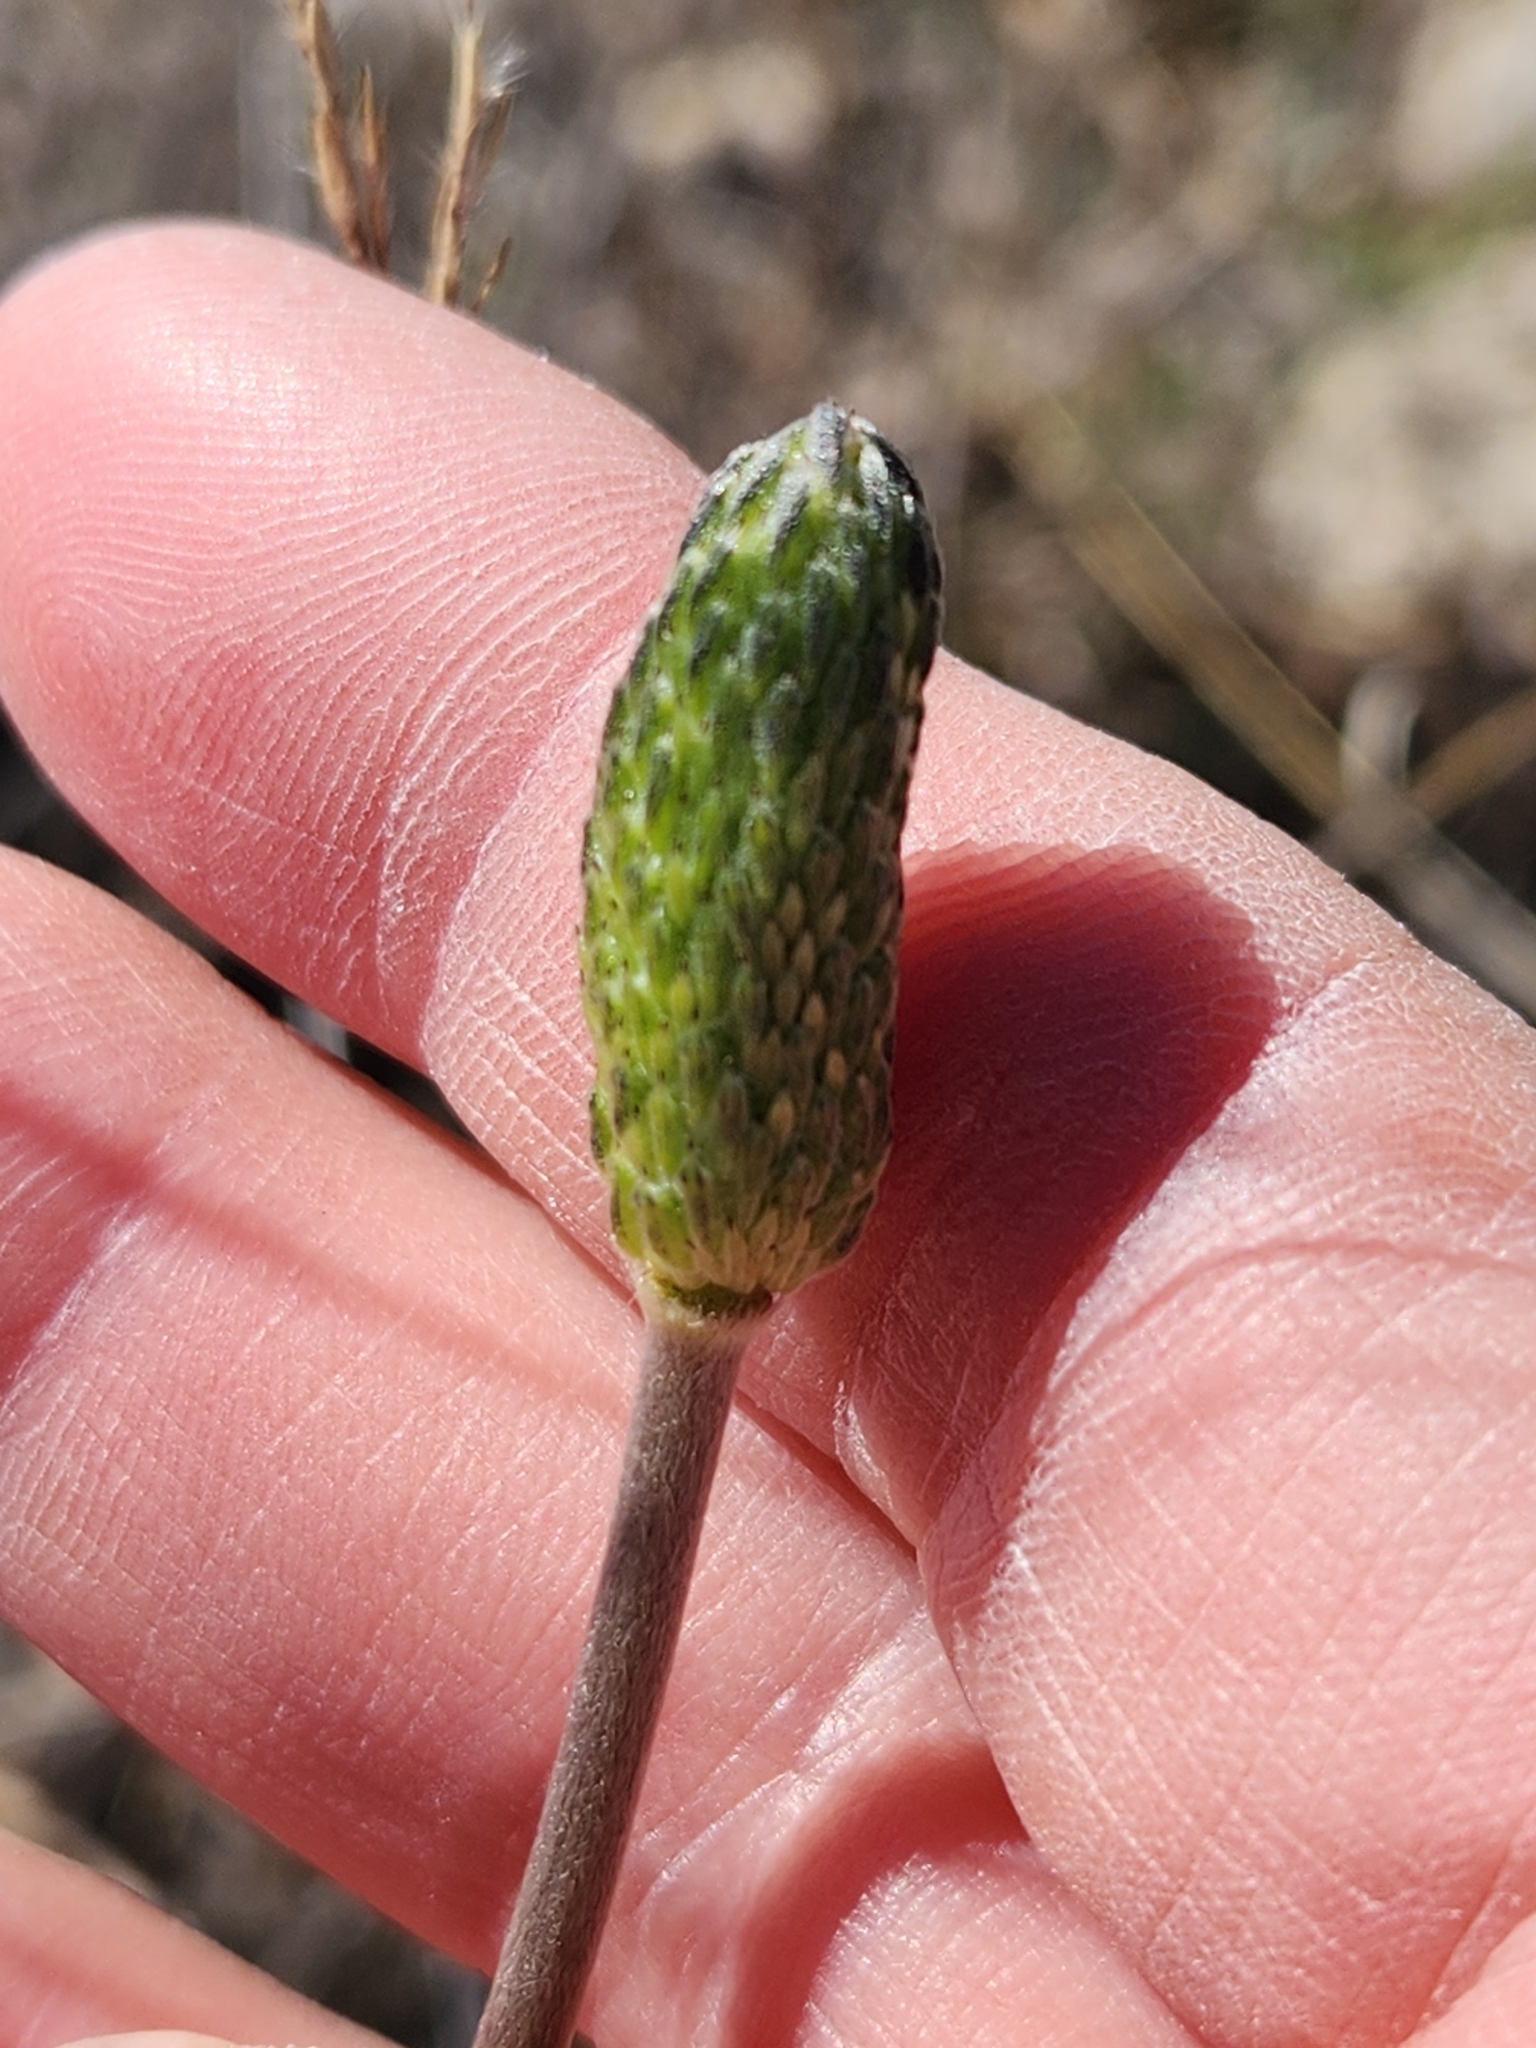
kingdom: Plantae
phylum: Tracheophyta
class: Magnoliopsida
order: Ranunculales
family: Ranunculaceae
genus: Anemone
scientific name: Anemone berlandieri
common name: Ten-petal anemone
